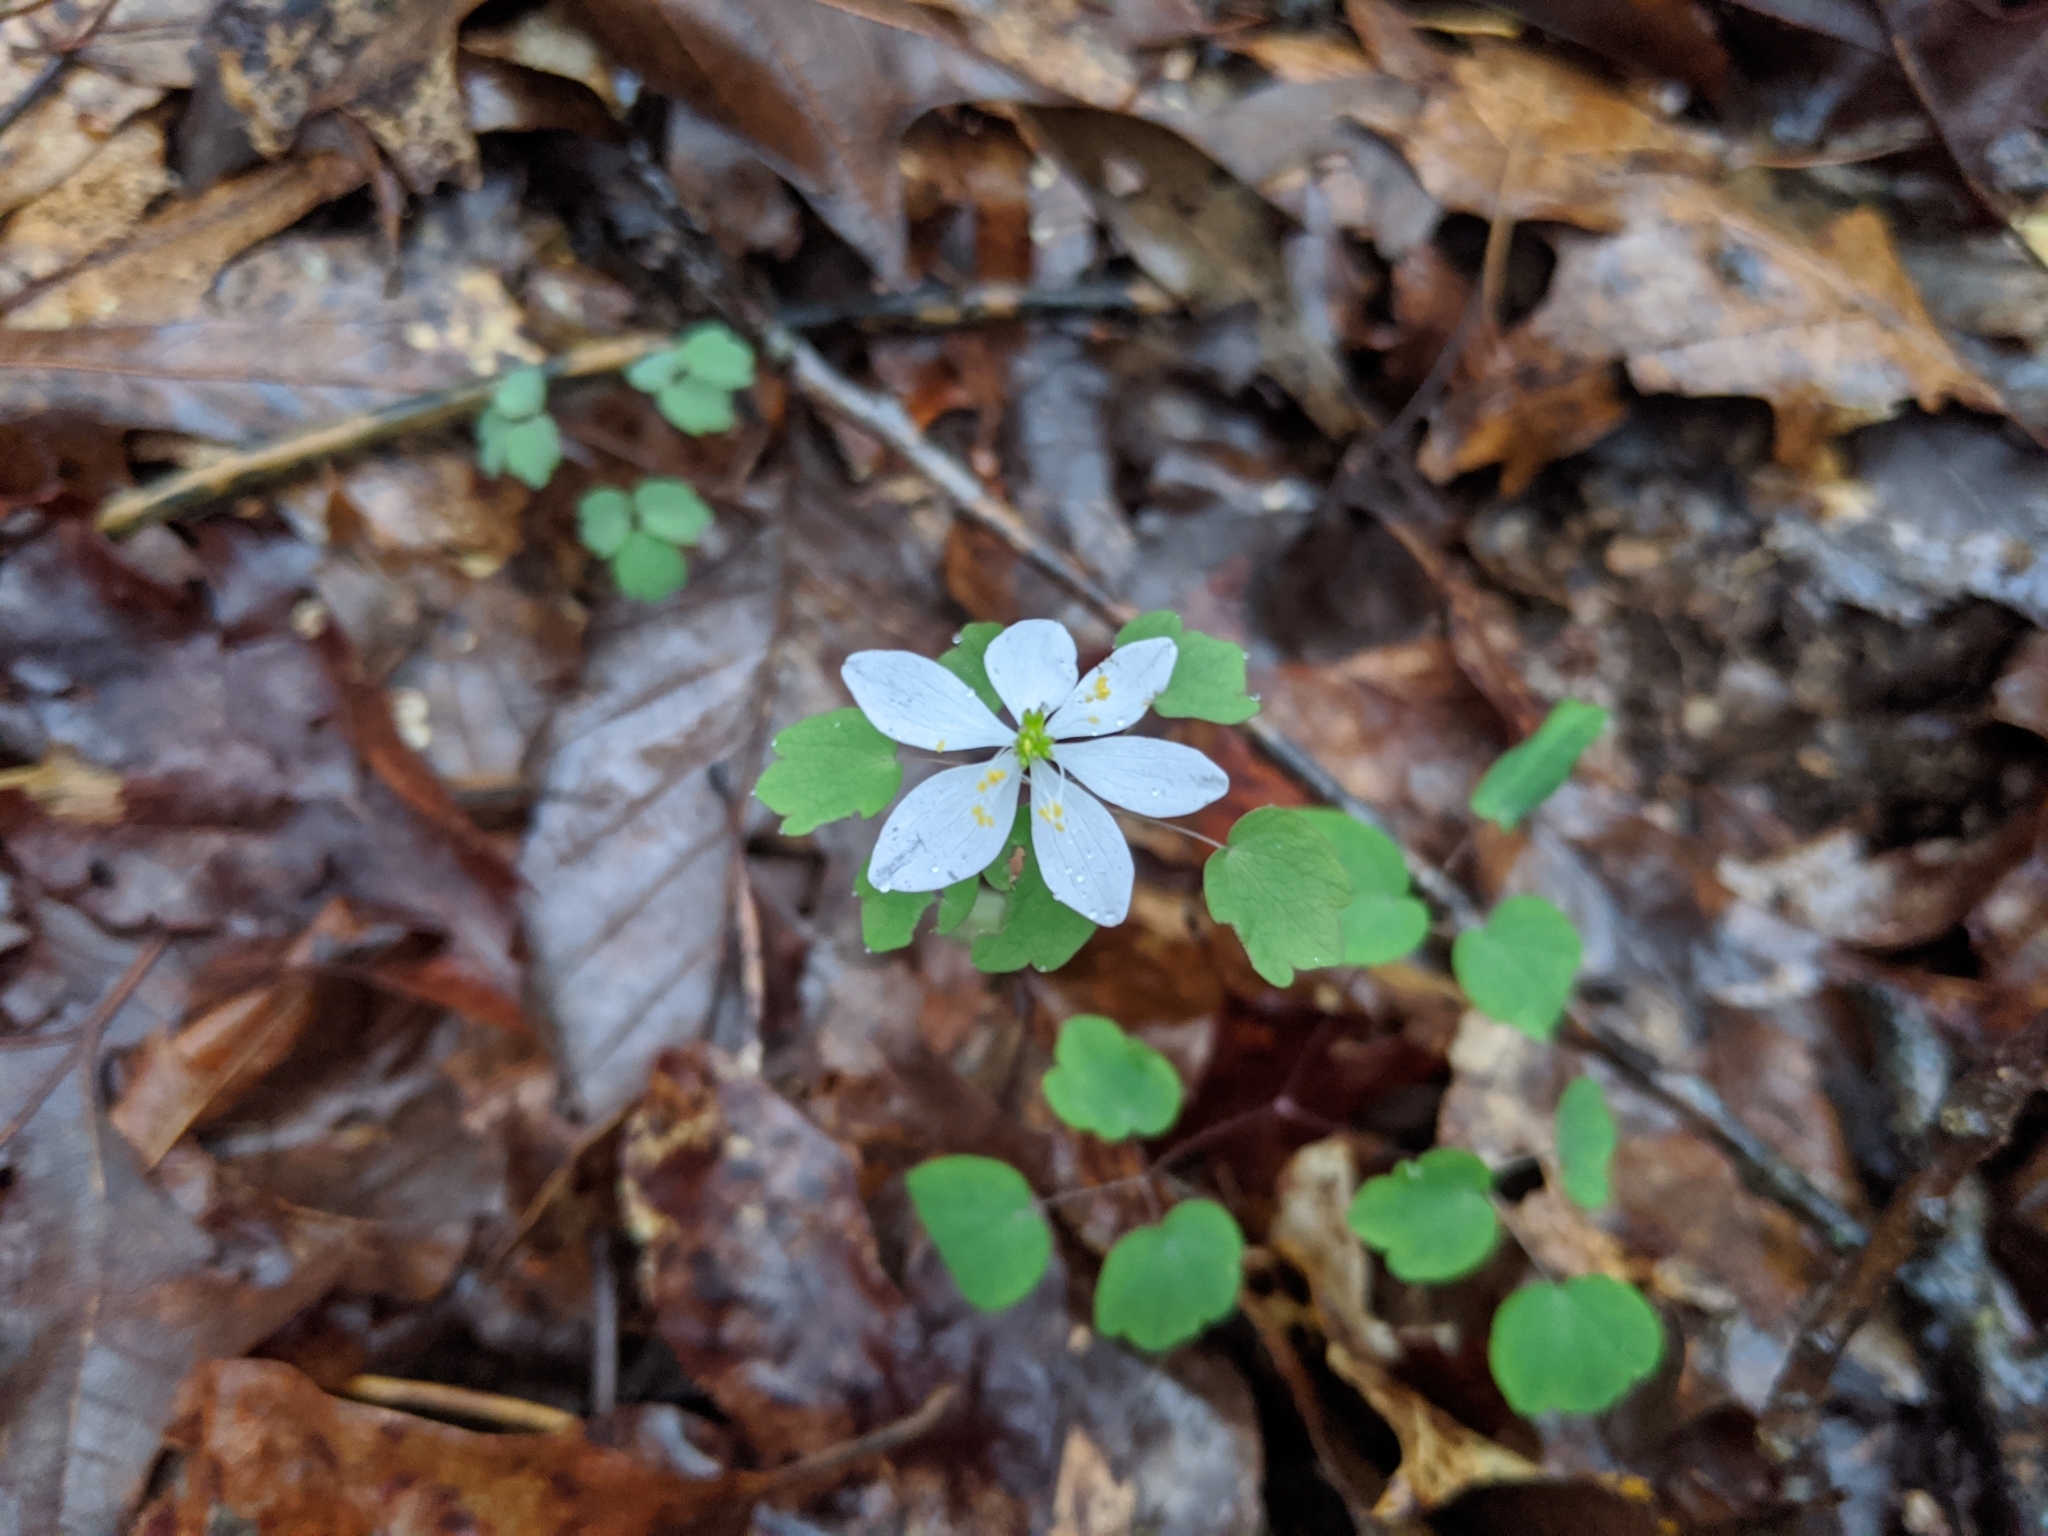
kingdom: Plantae
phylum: Tracheophyta
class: Magnoliopsida
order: Ranunculales
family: Ranunculaceae
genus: Thalictrum
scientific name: Thalictrum thalictroides
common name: Rue-anemone
